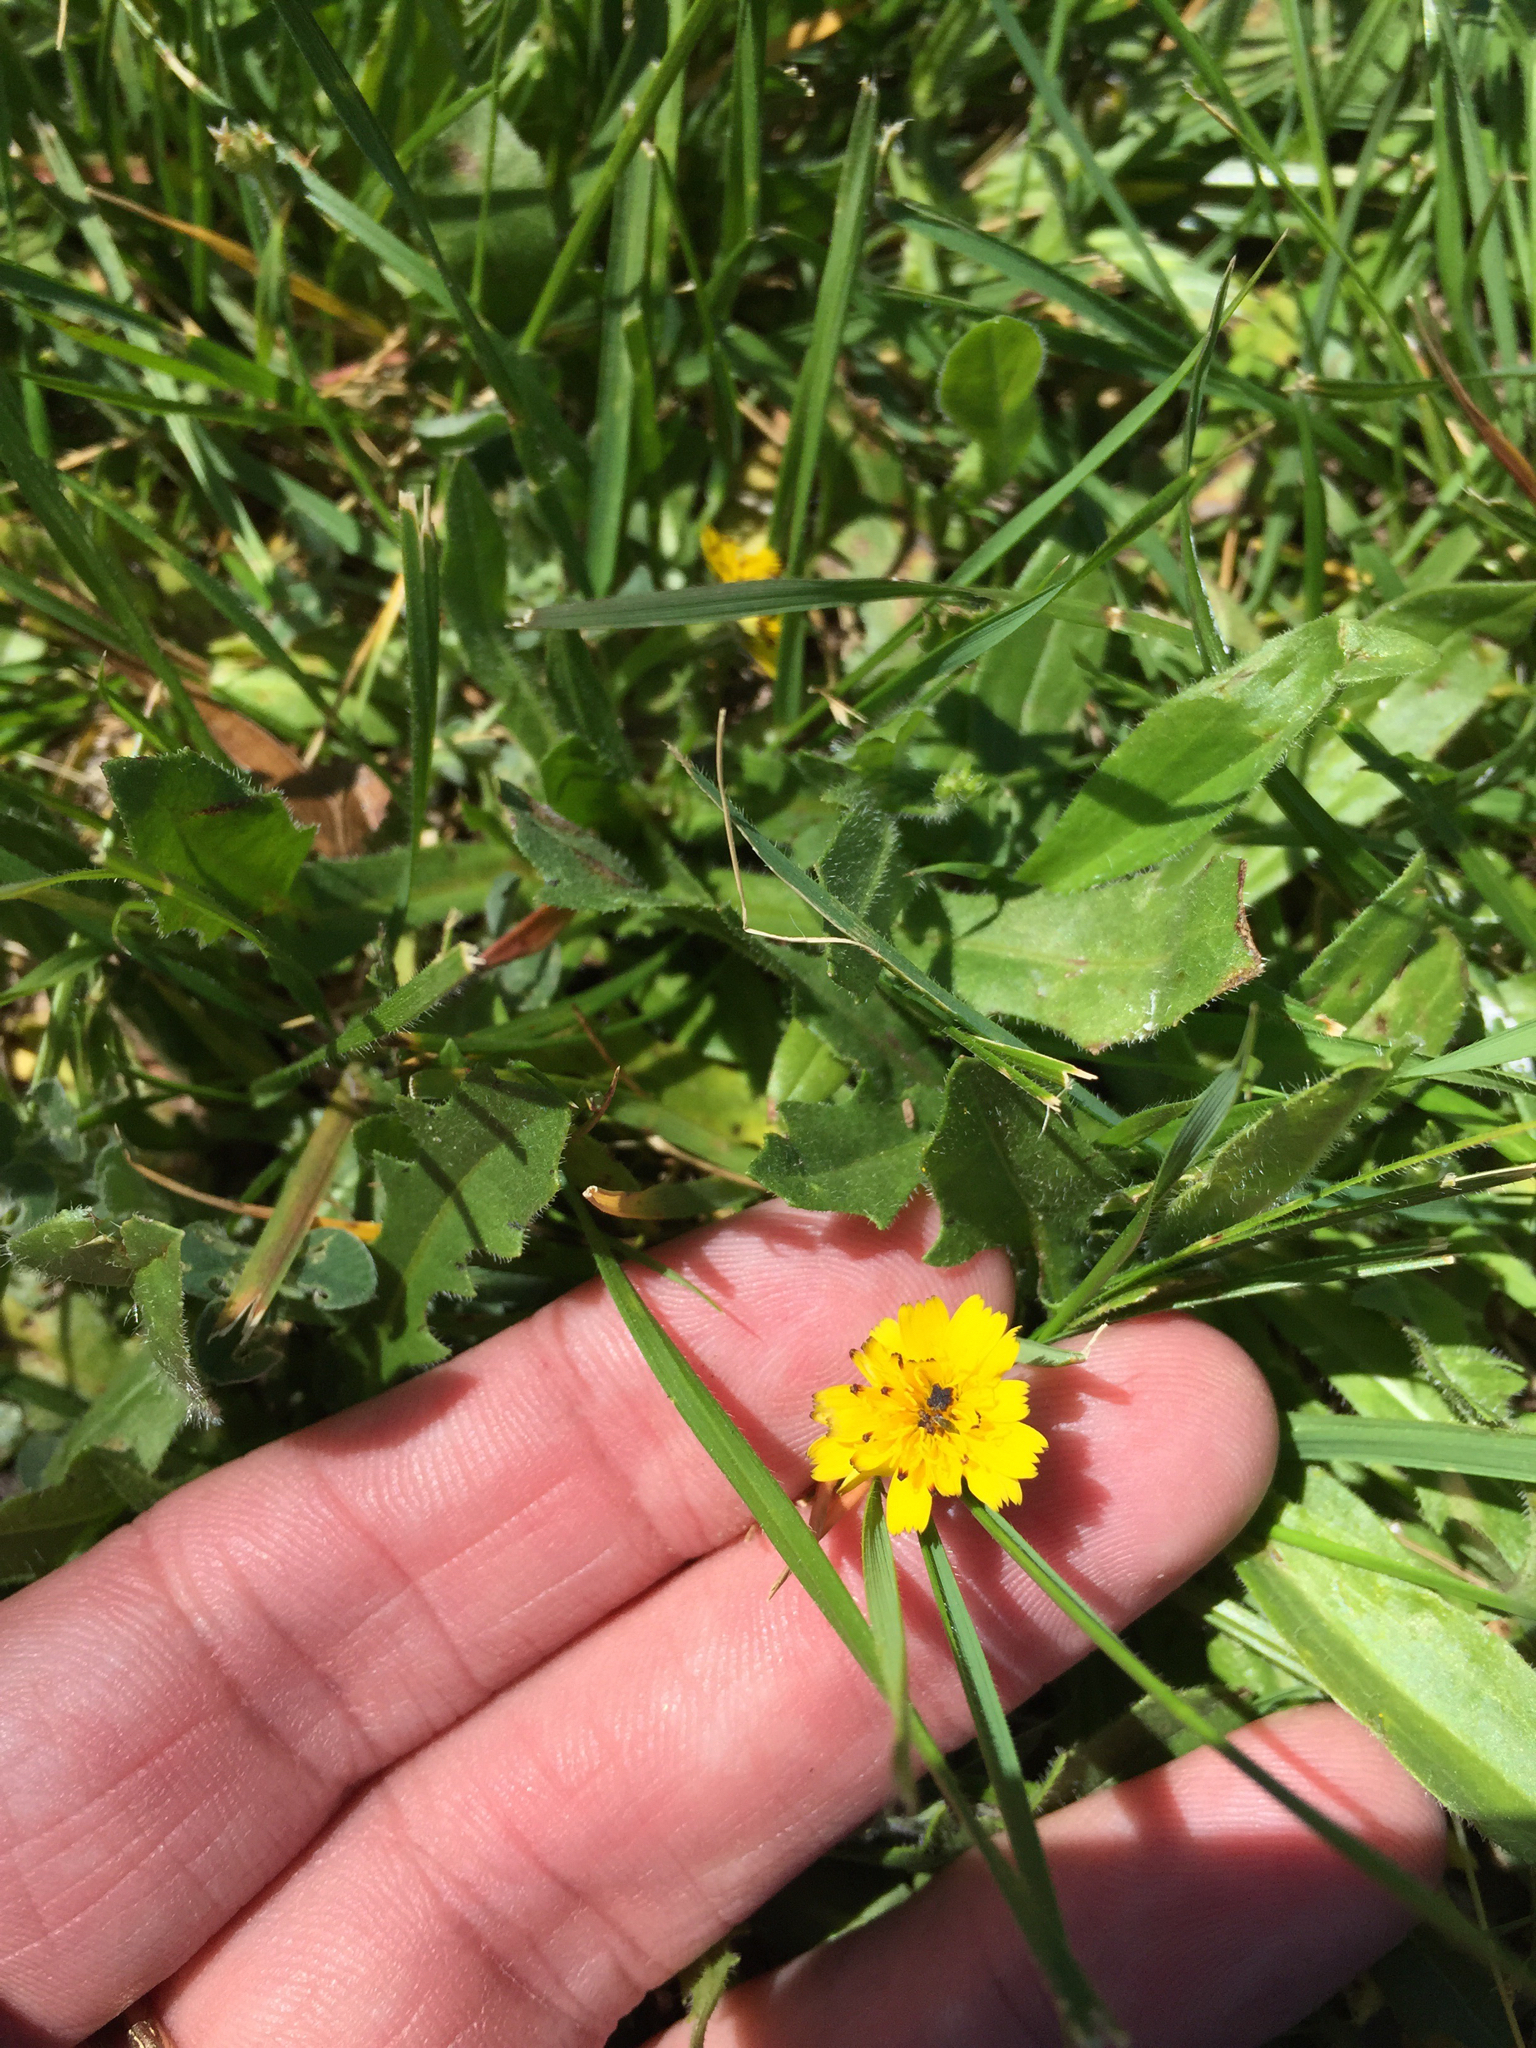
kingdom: Plantae
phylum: Tracheophyta
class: Magnoliopsida
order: Asterales
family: Asteraceae
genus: Hedypnois
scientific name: Hedypnois rhagadioloides
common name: Cretan weed
